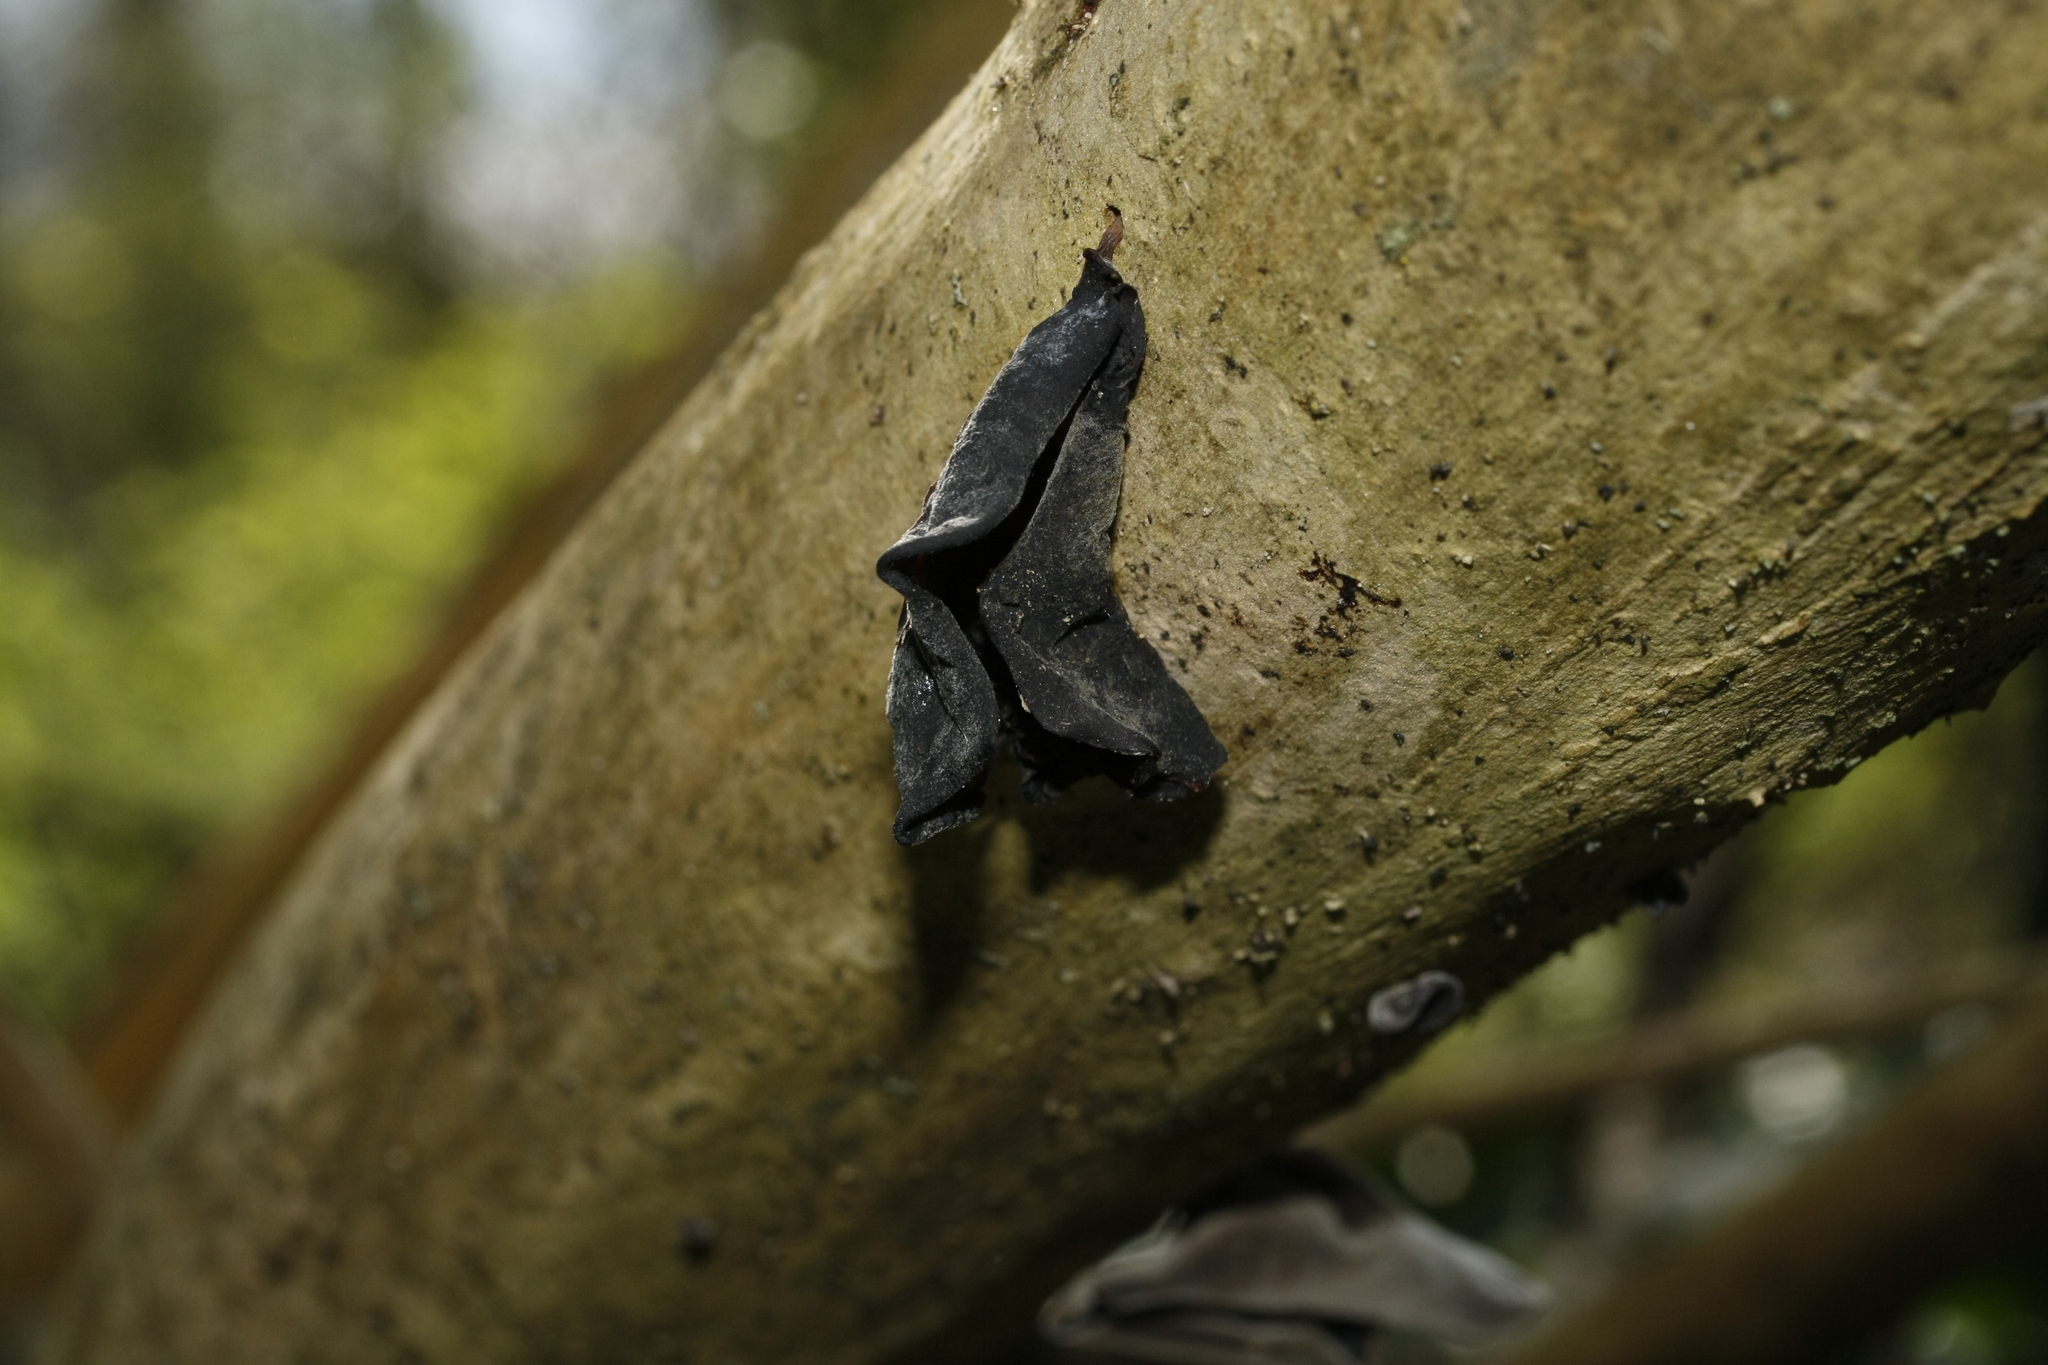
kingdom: Fungi
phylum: Basidiomycota
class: Agaricomycetes
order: Auriculariales
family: Auriculariaceae
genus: Auricularia
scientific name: Auricularia auricula-judae
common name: Jelly ear
